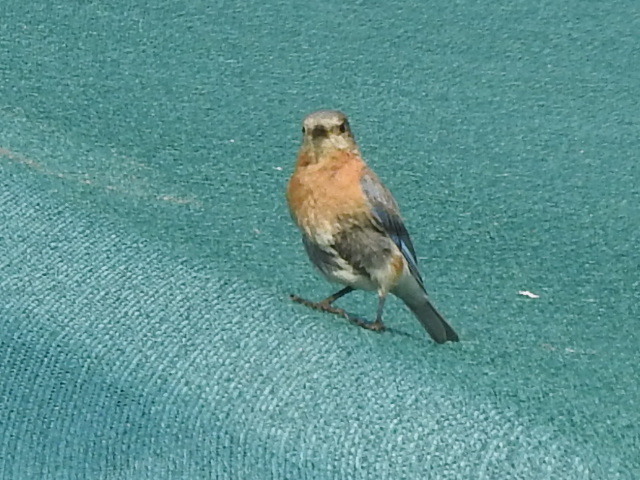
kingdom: Animalia
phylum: Chordata
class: Aves
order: Passeriformes
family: Turdidae
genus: Sialia
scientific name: Sialia sialis
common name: Eastern bluebird
